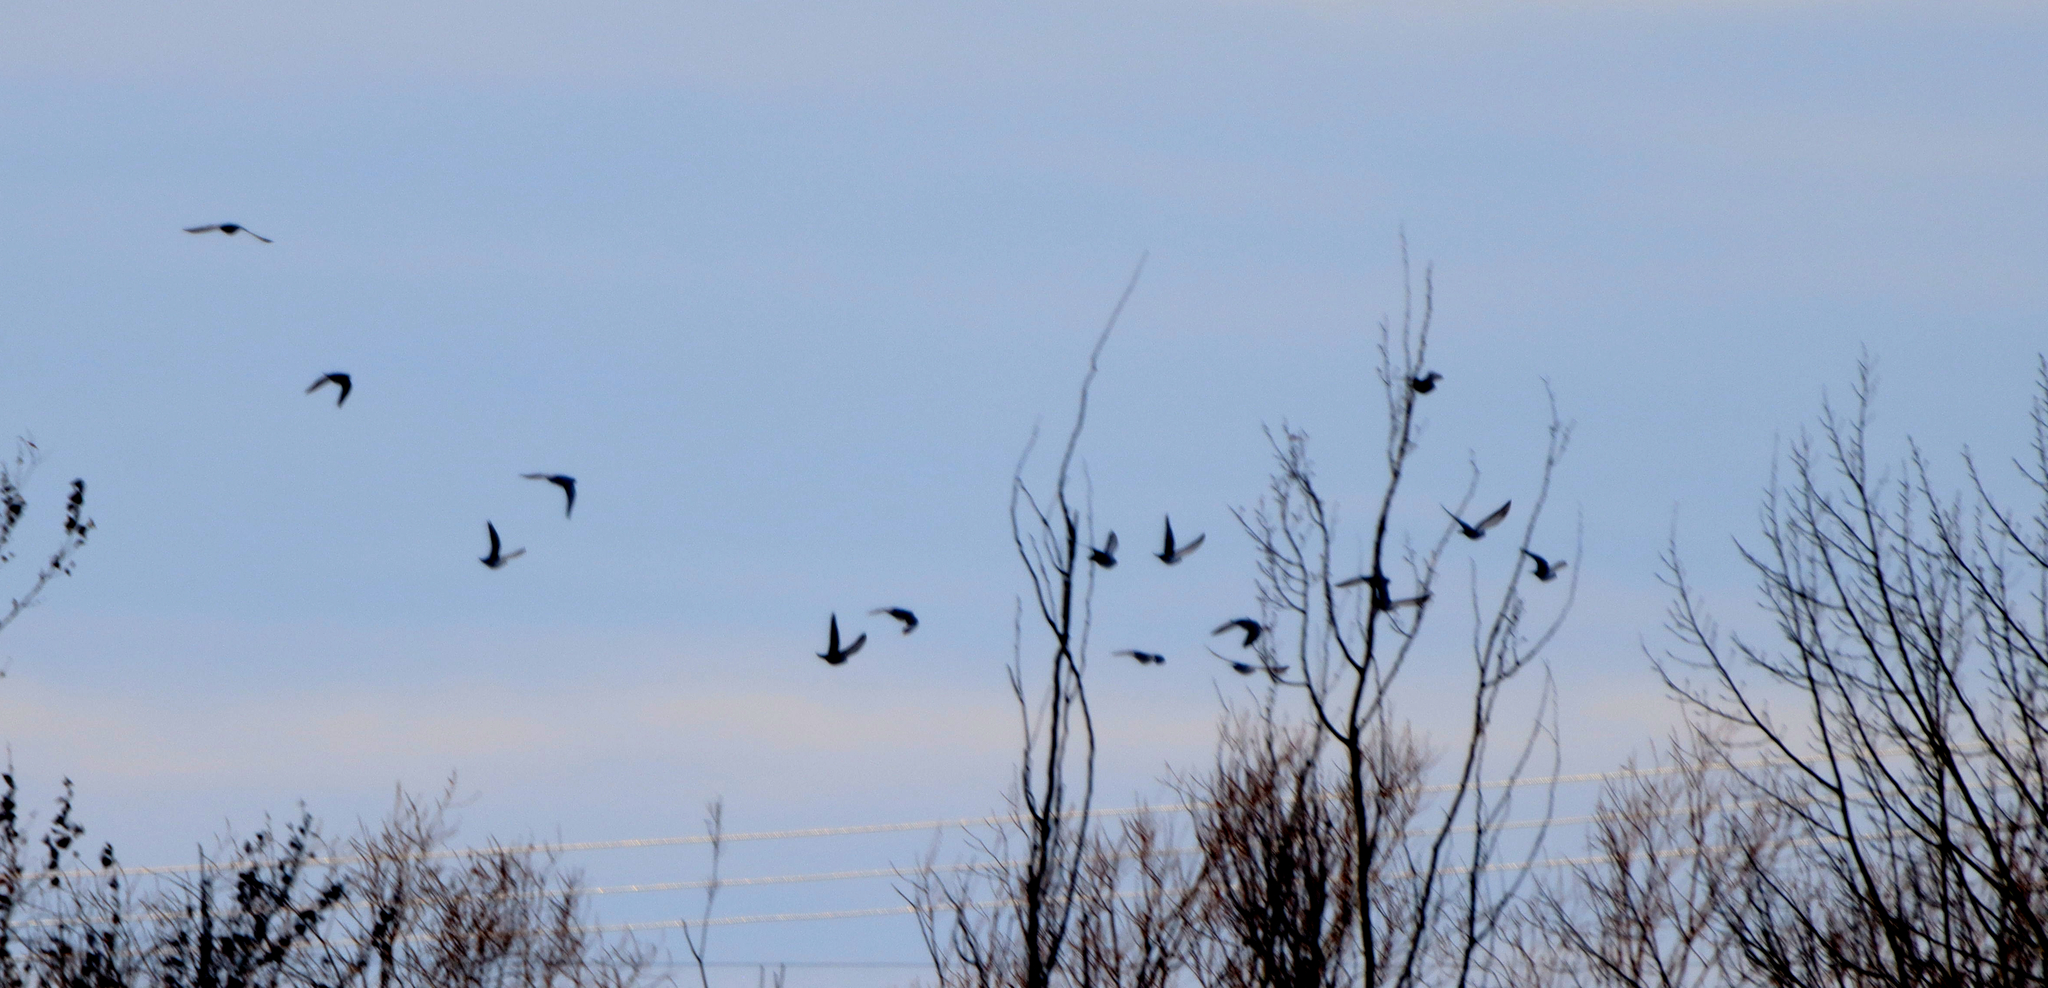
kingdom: Animalia
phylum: Chordata
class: Aves
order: Columbiformes
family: Columbidae
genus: Columba
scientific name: Columba livia
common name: Rock pigeon
